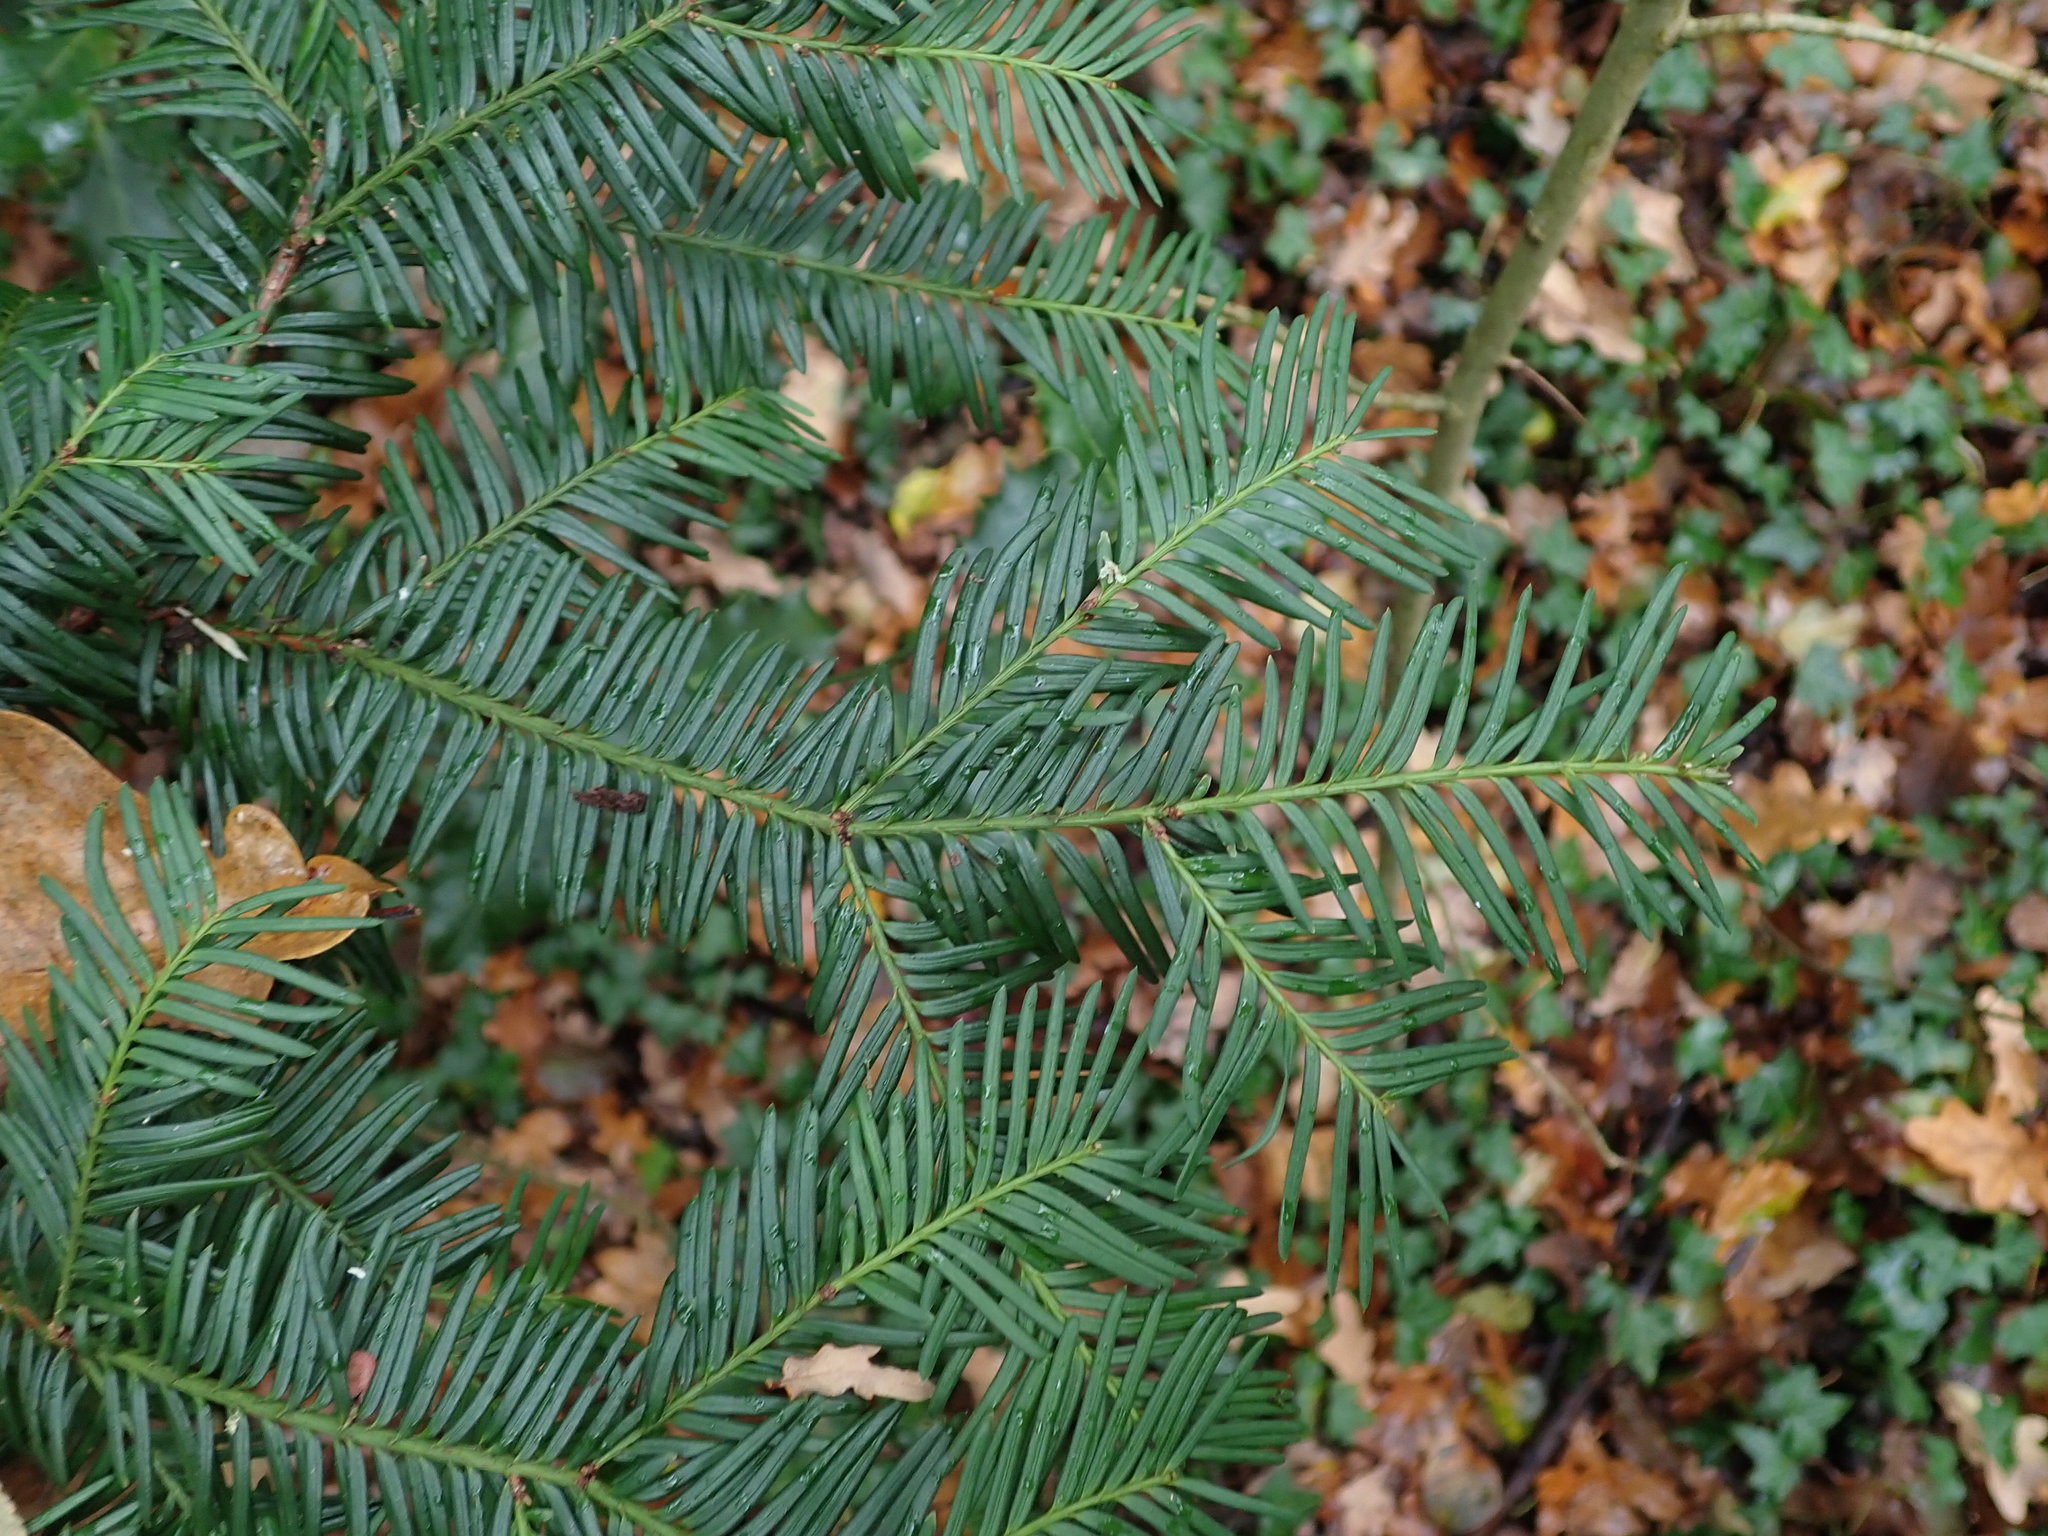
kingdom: Plantae
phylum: Tracheophyta
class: Pinopsida
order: Pinales
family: Taxaceae
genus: Taxus
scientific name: Taxus baccata
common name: Yew
